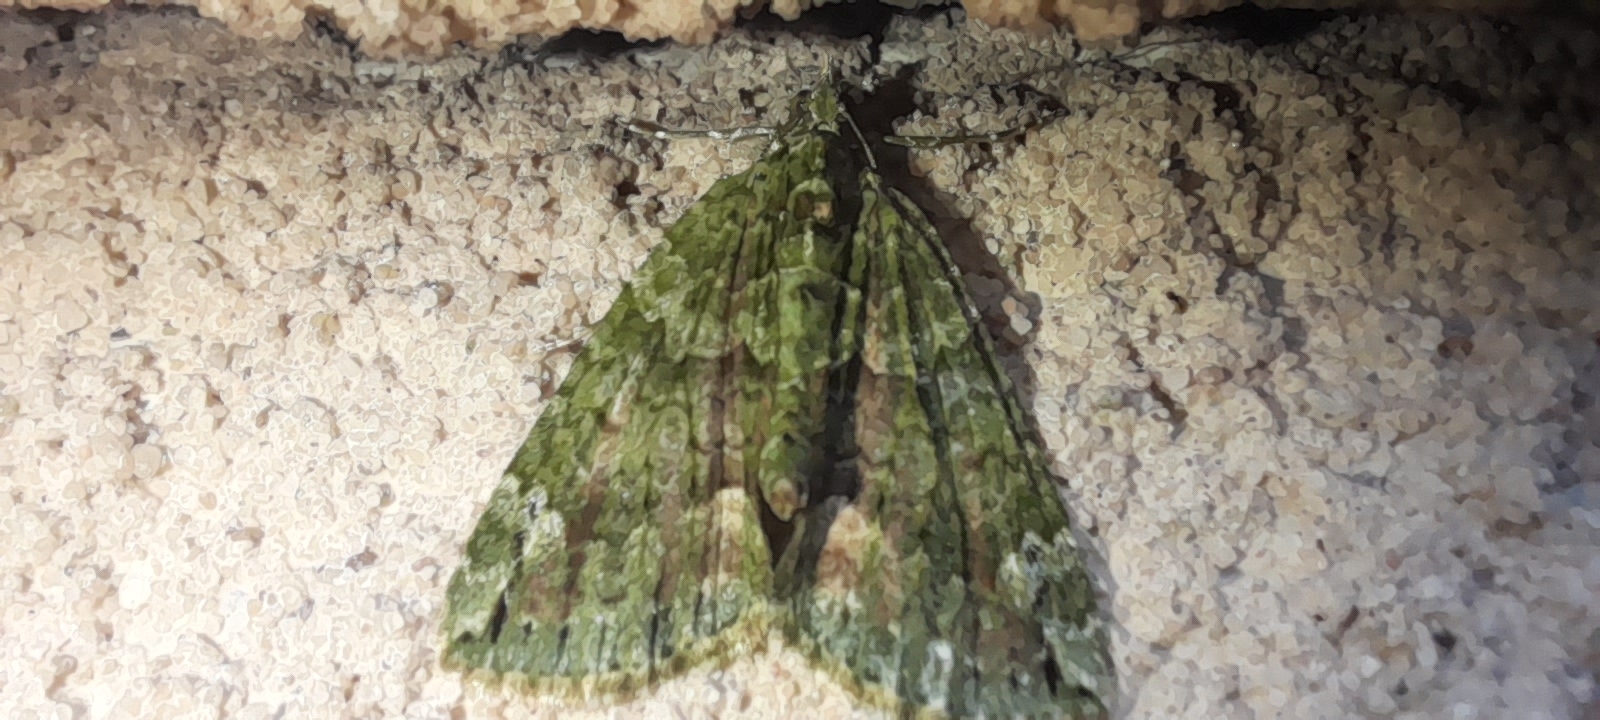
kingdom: Animalia
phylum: Arthropoda
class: Insecta
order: Lepidoptera
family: Geometridae
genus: Chloroclysta
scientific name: Chloroclysta siterata
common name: Red-green carpet
